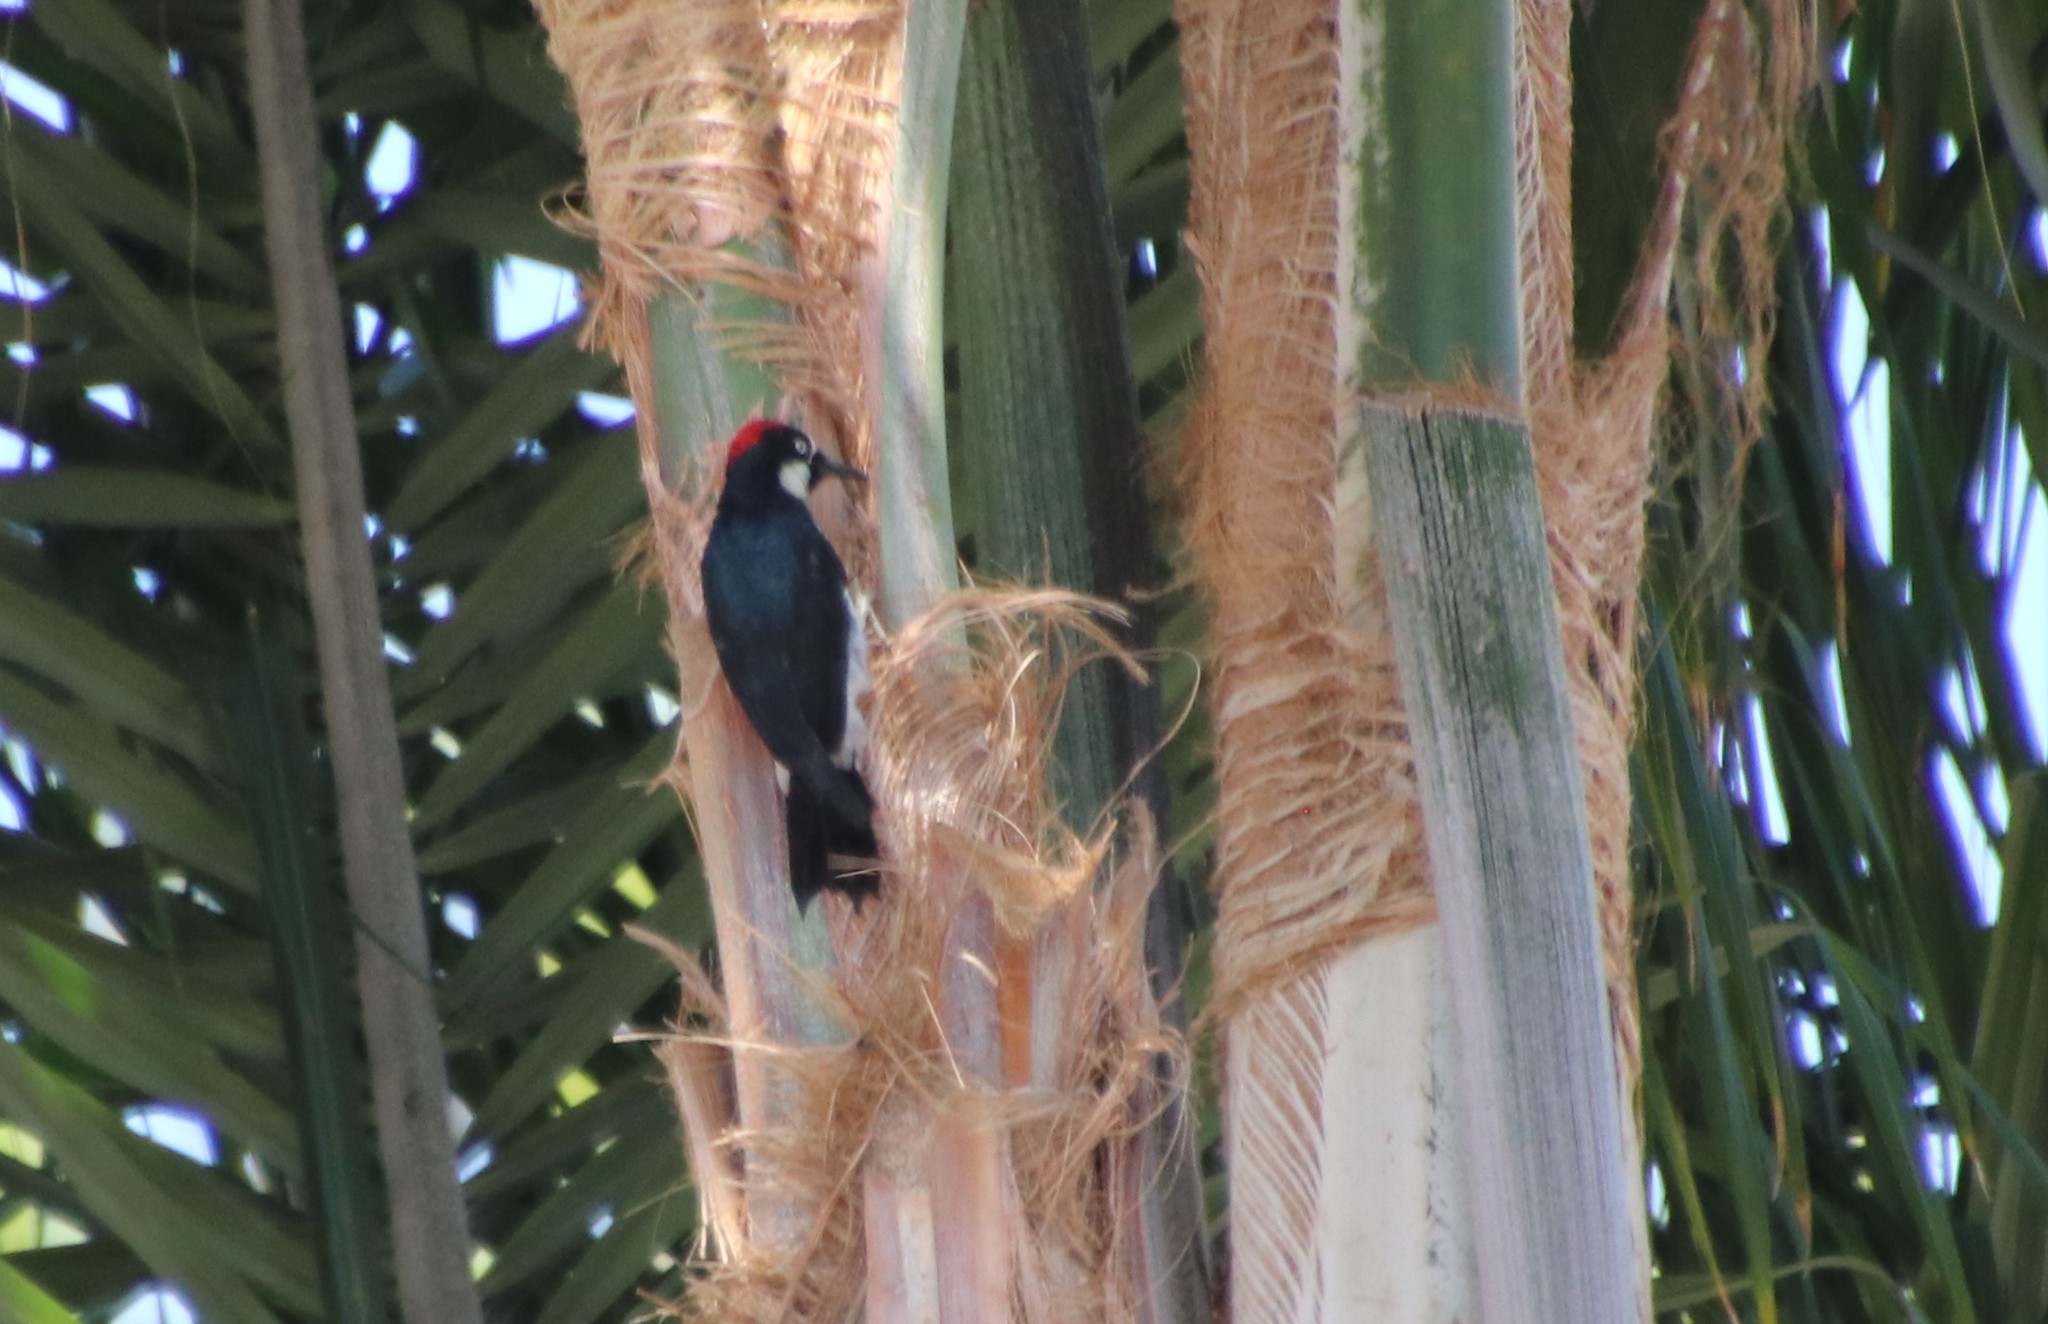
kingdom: Animalia
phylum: Chordata
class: Aves
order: Piciformes
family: Picidae
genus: Melanerpes
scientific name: Melanerpes formicivorus
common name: Acorn woodpecker
